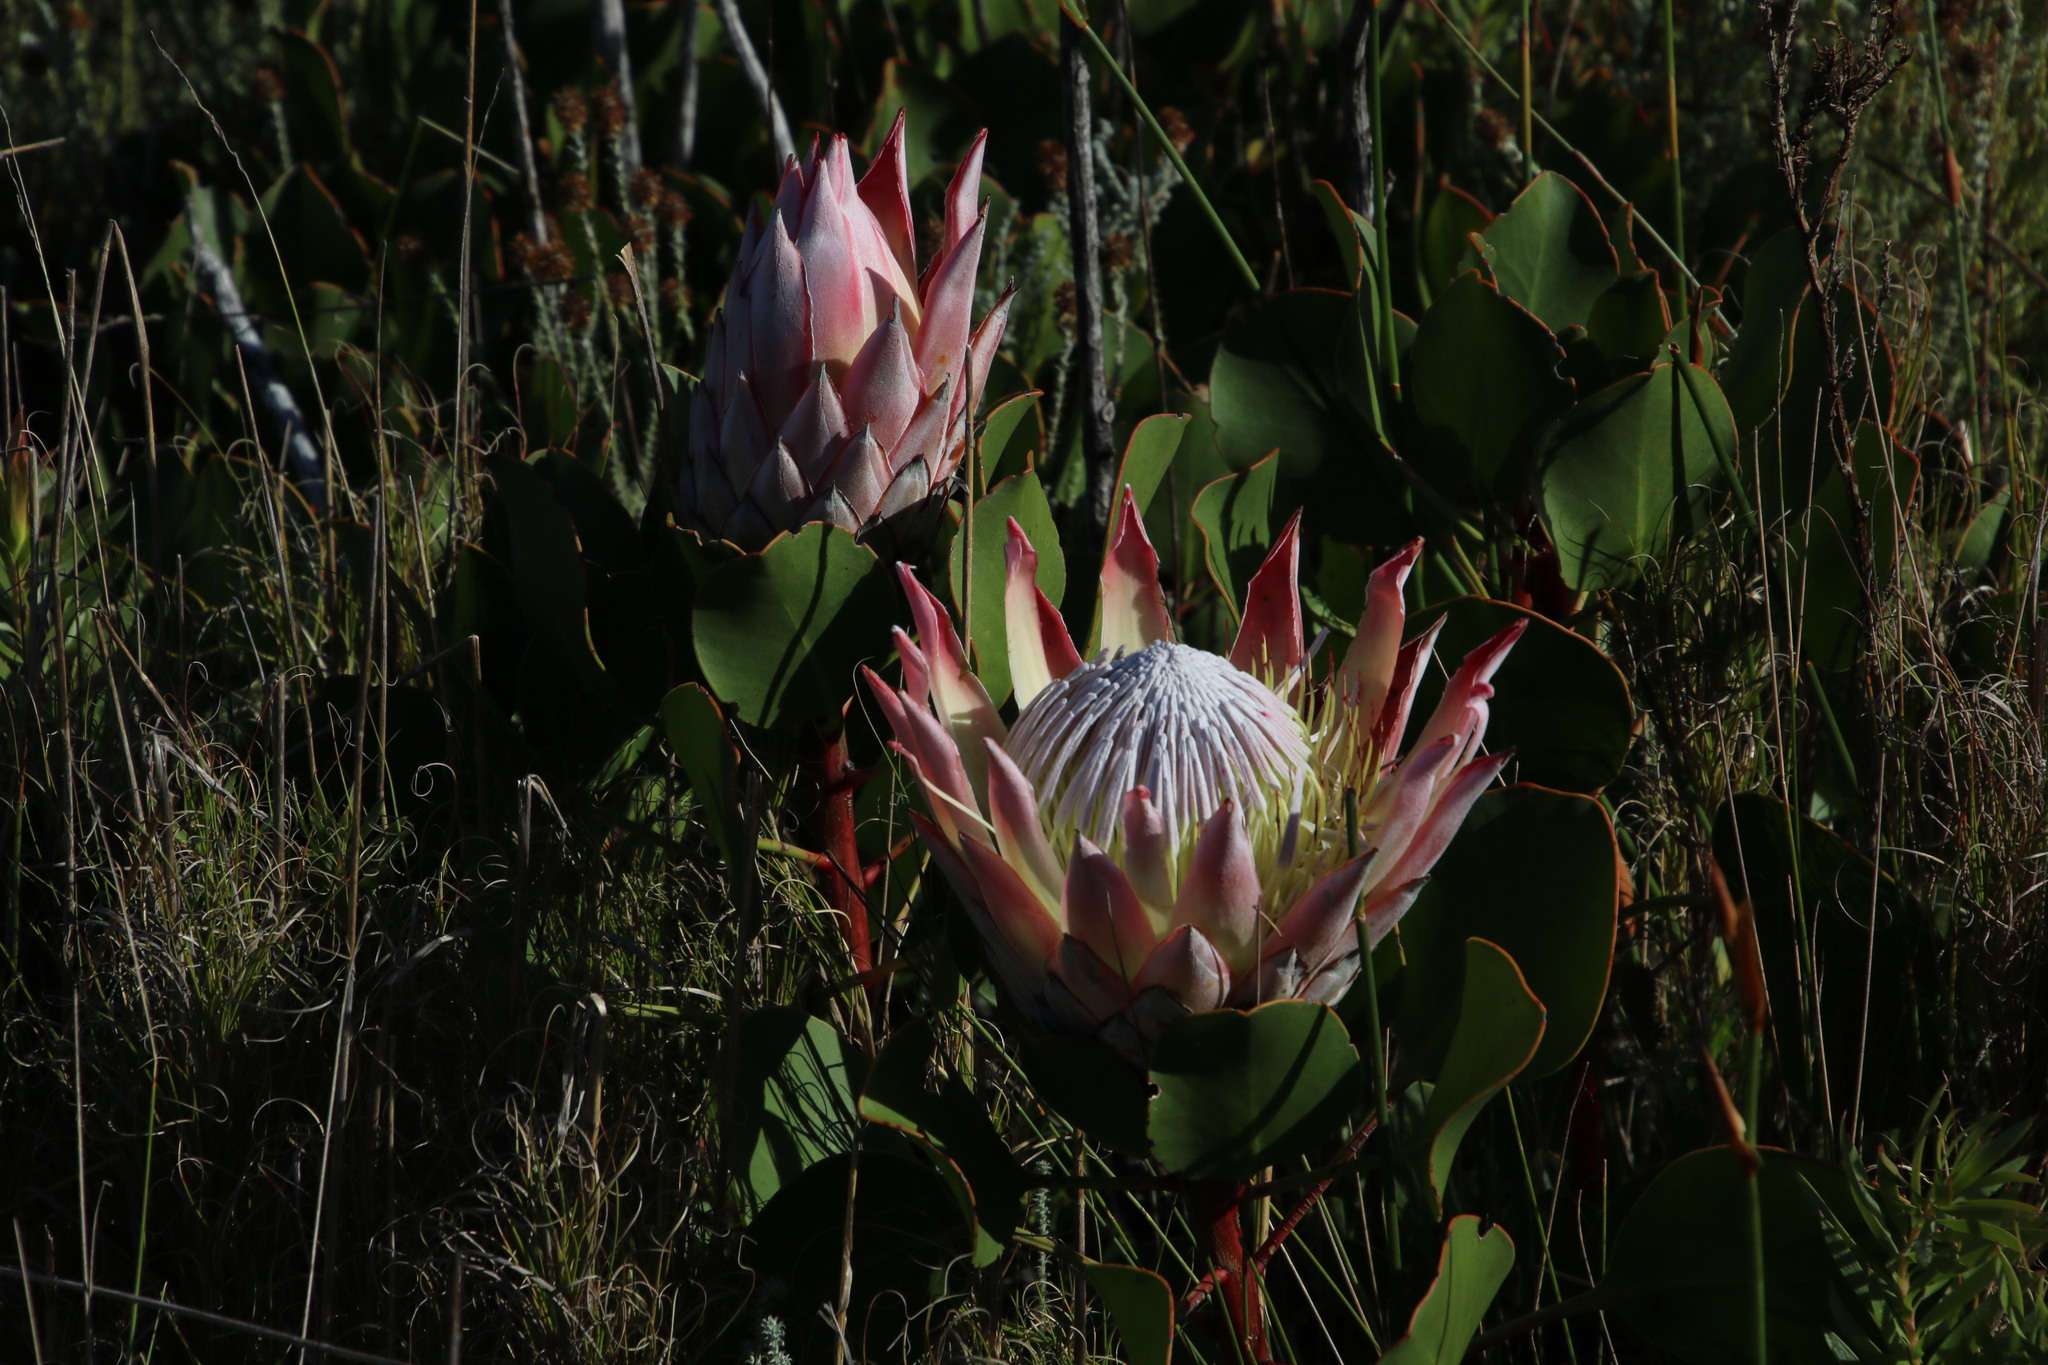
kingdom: Plantae
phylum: Tracheophyta
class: Magnoliopsida
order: Proteales
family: Proteaceae
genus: Protea
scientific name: Protea cynaroides
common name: King protea
